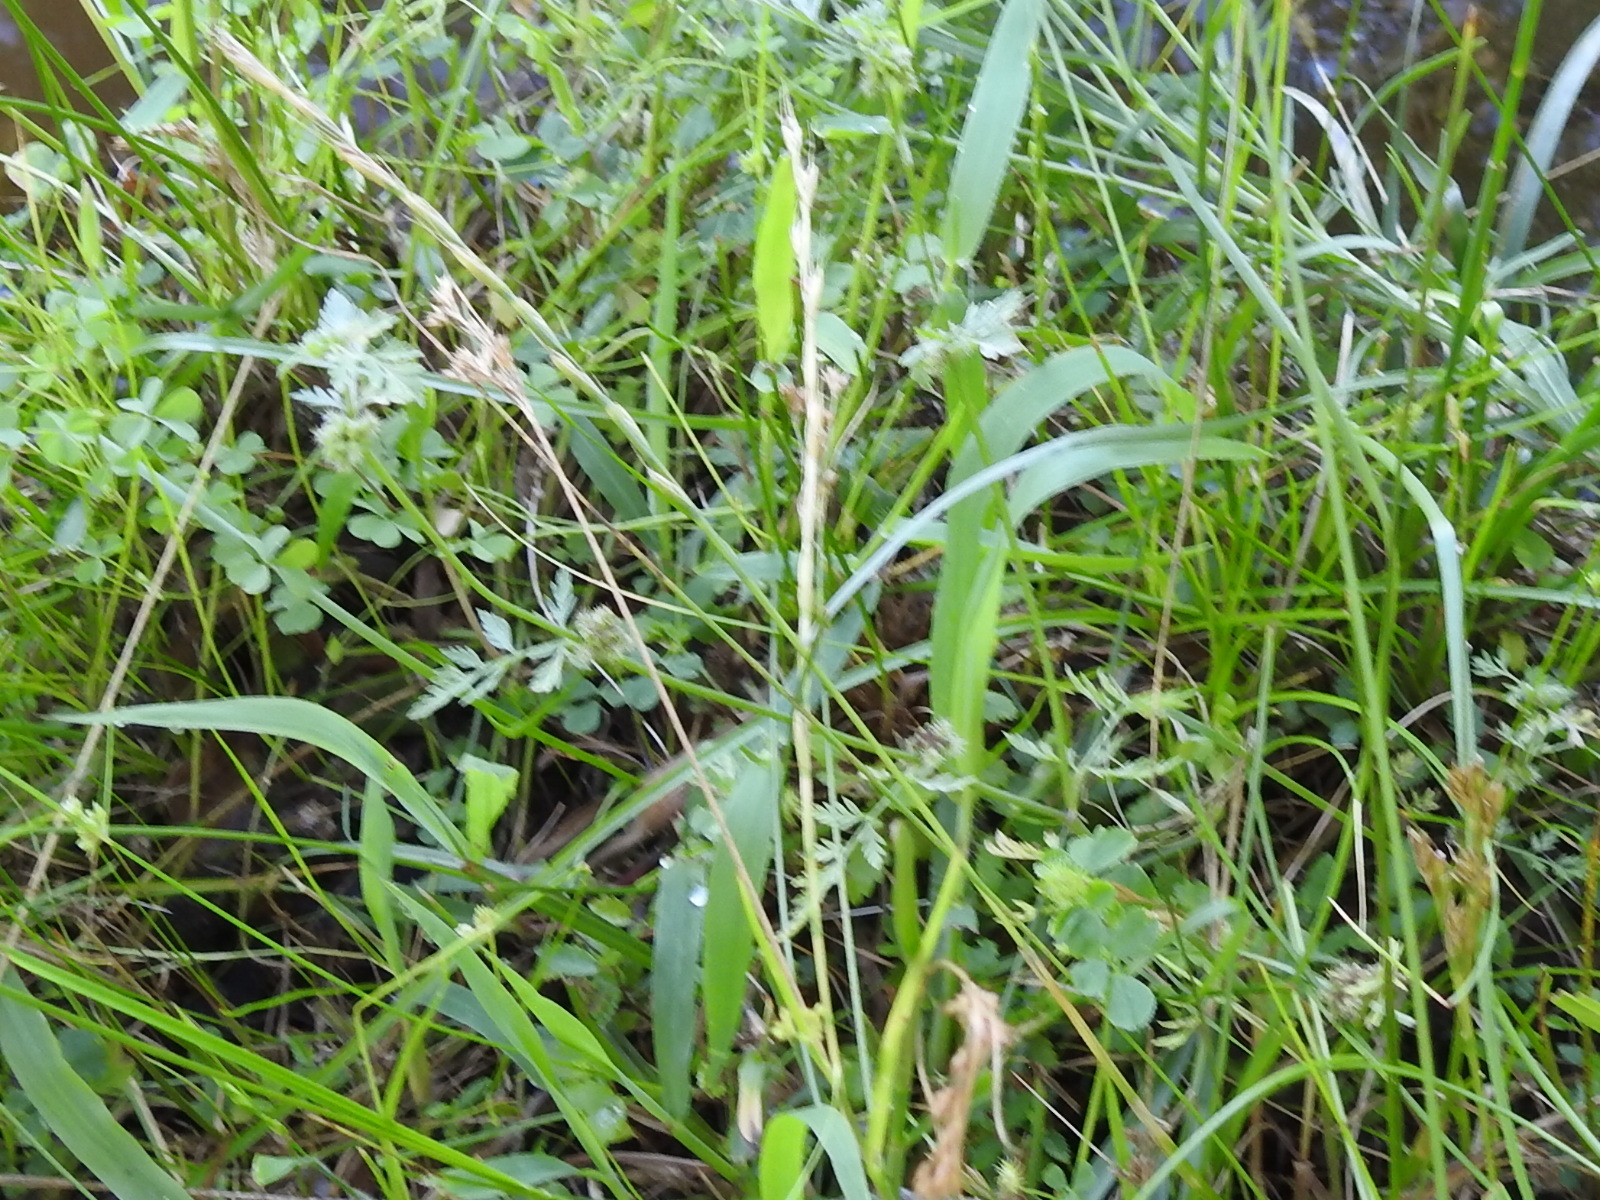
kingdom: Plantae
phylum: Tracheophyta
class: Magnoliopsida
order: Apiales
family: Apiaceae
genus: Torilis
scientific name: Torilis nodosa
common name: Knotted hedge-parsley
